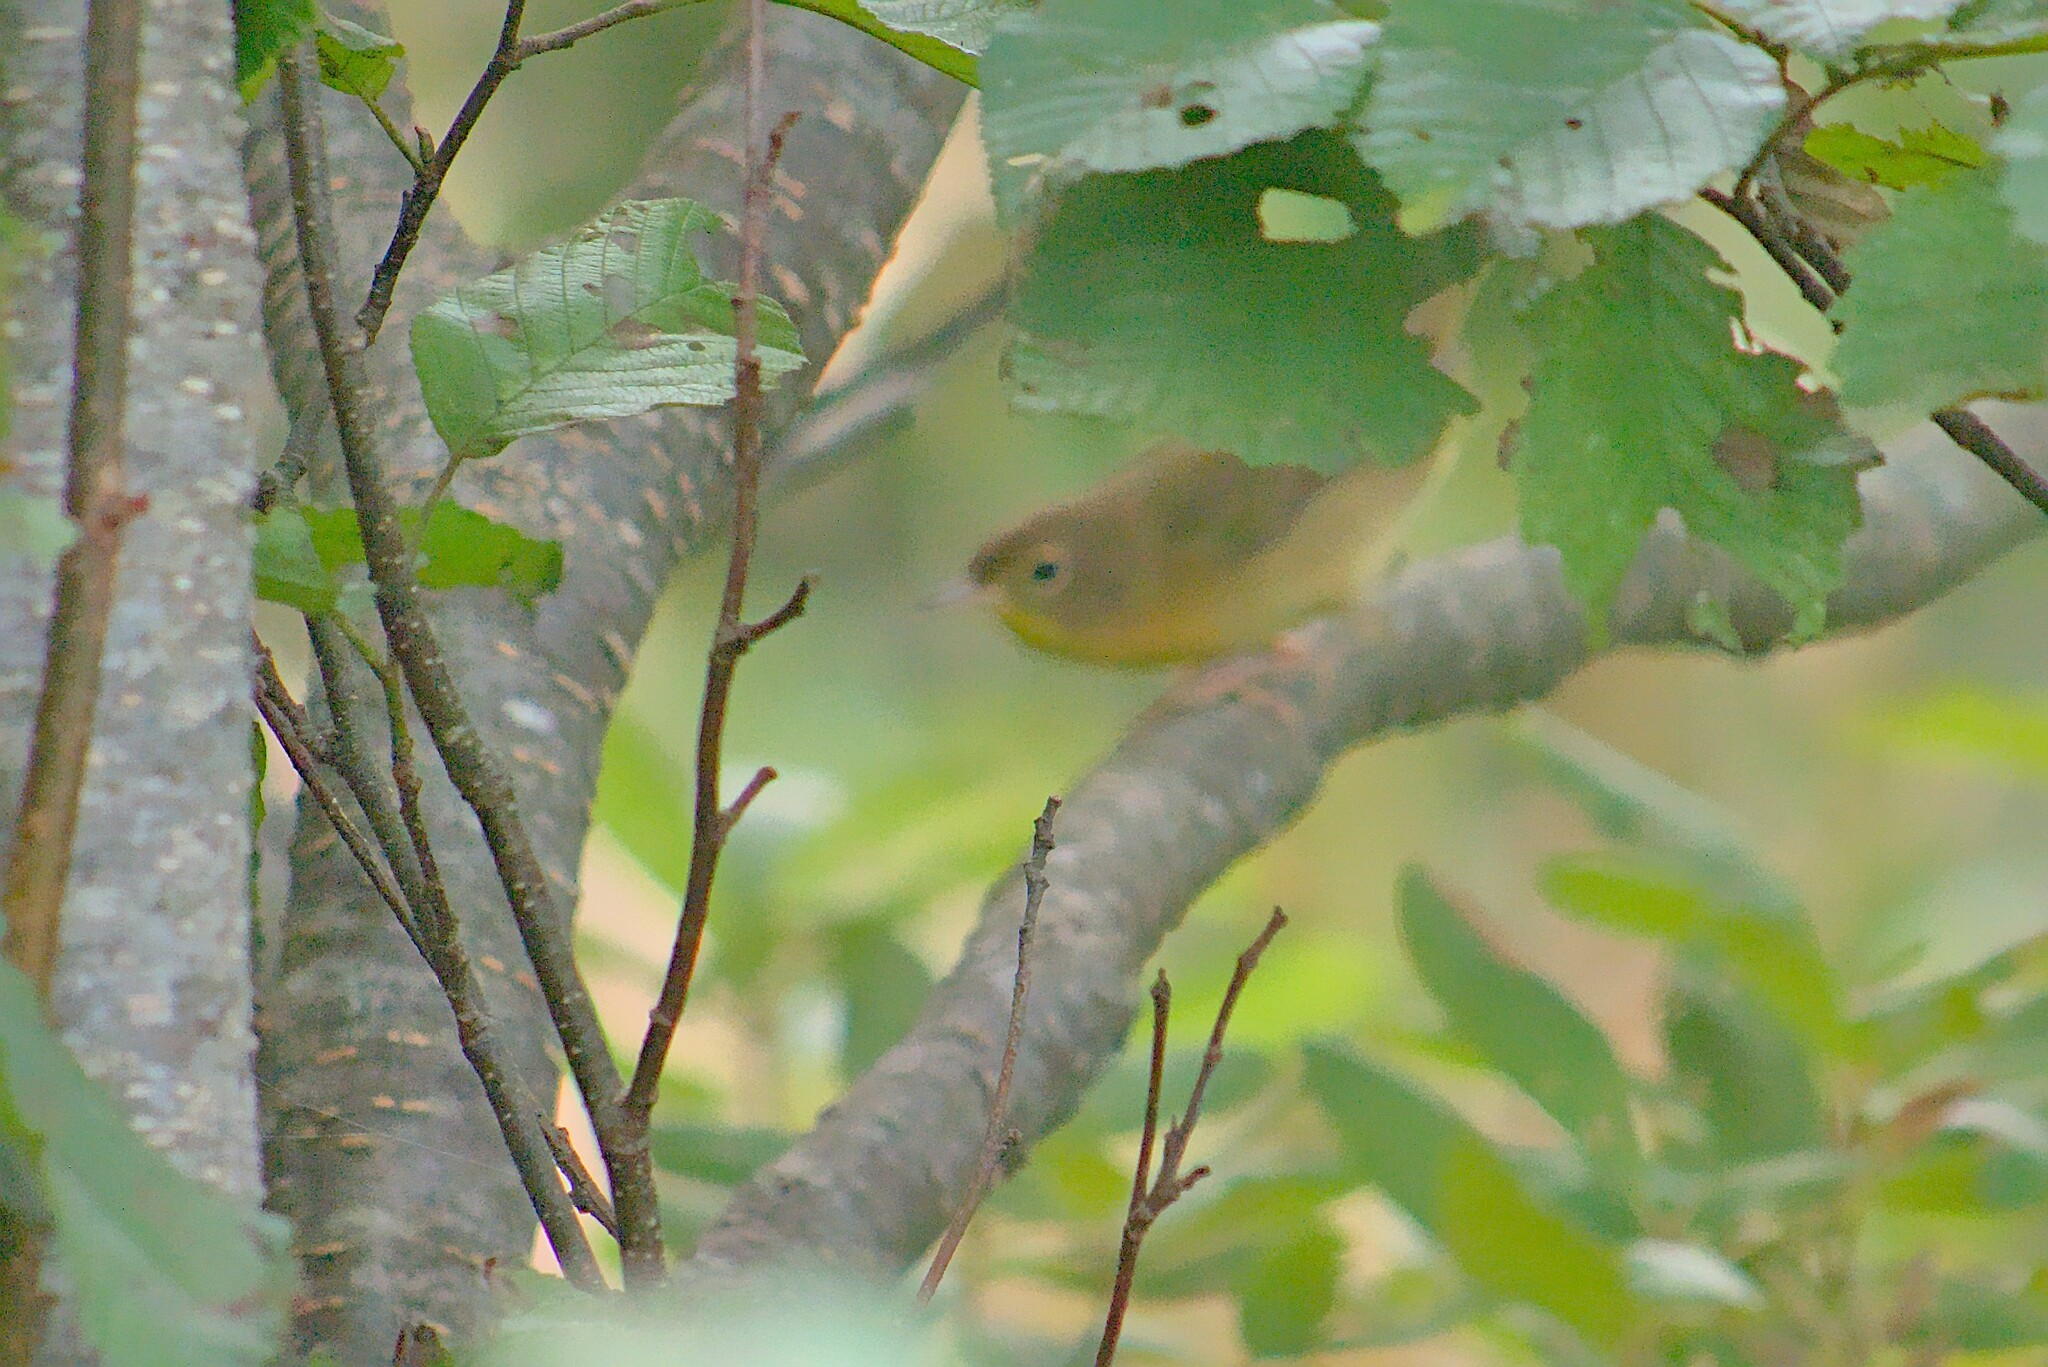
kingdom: Animalia
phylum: Chordata
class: Aves
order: Passeriformes
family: Parulidae
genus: Geothlypis
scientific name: Geothlypis trichas
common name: Common yellowthroat
